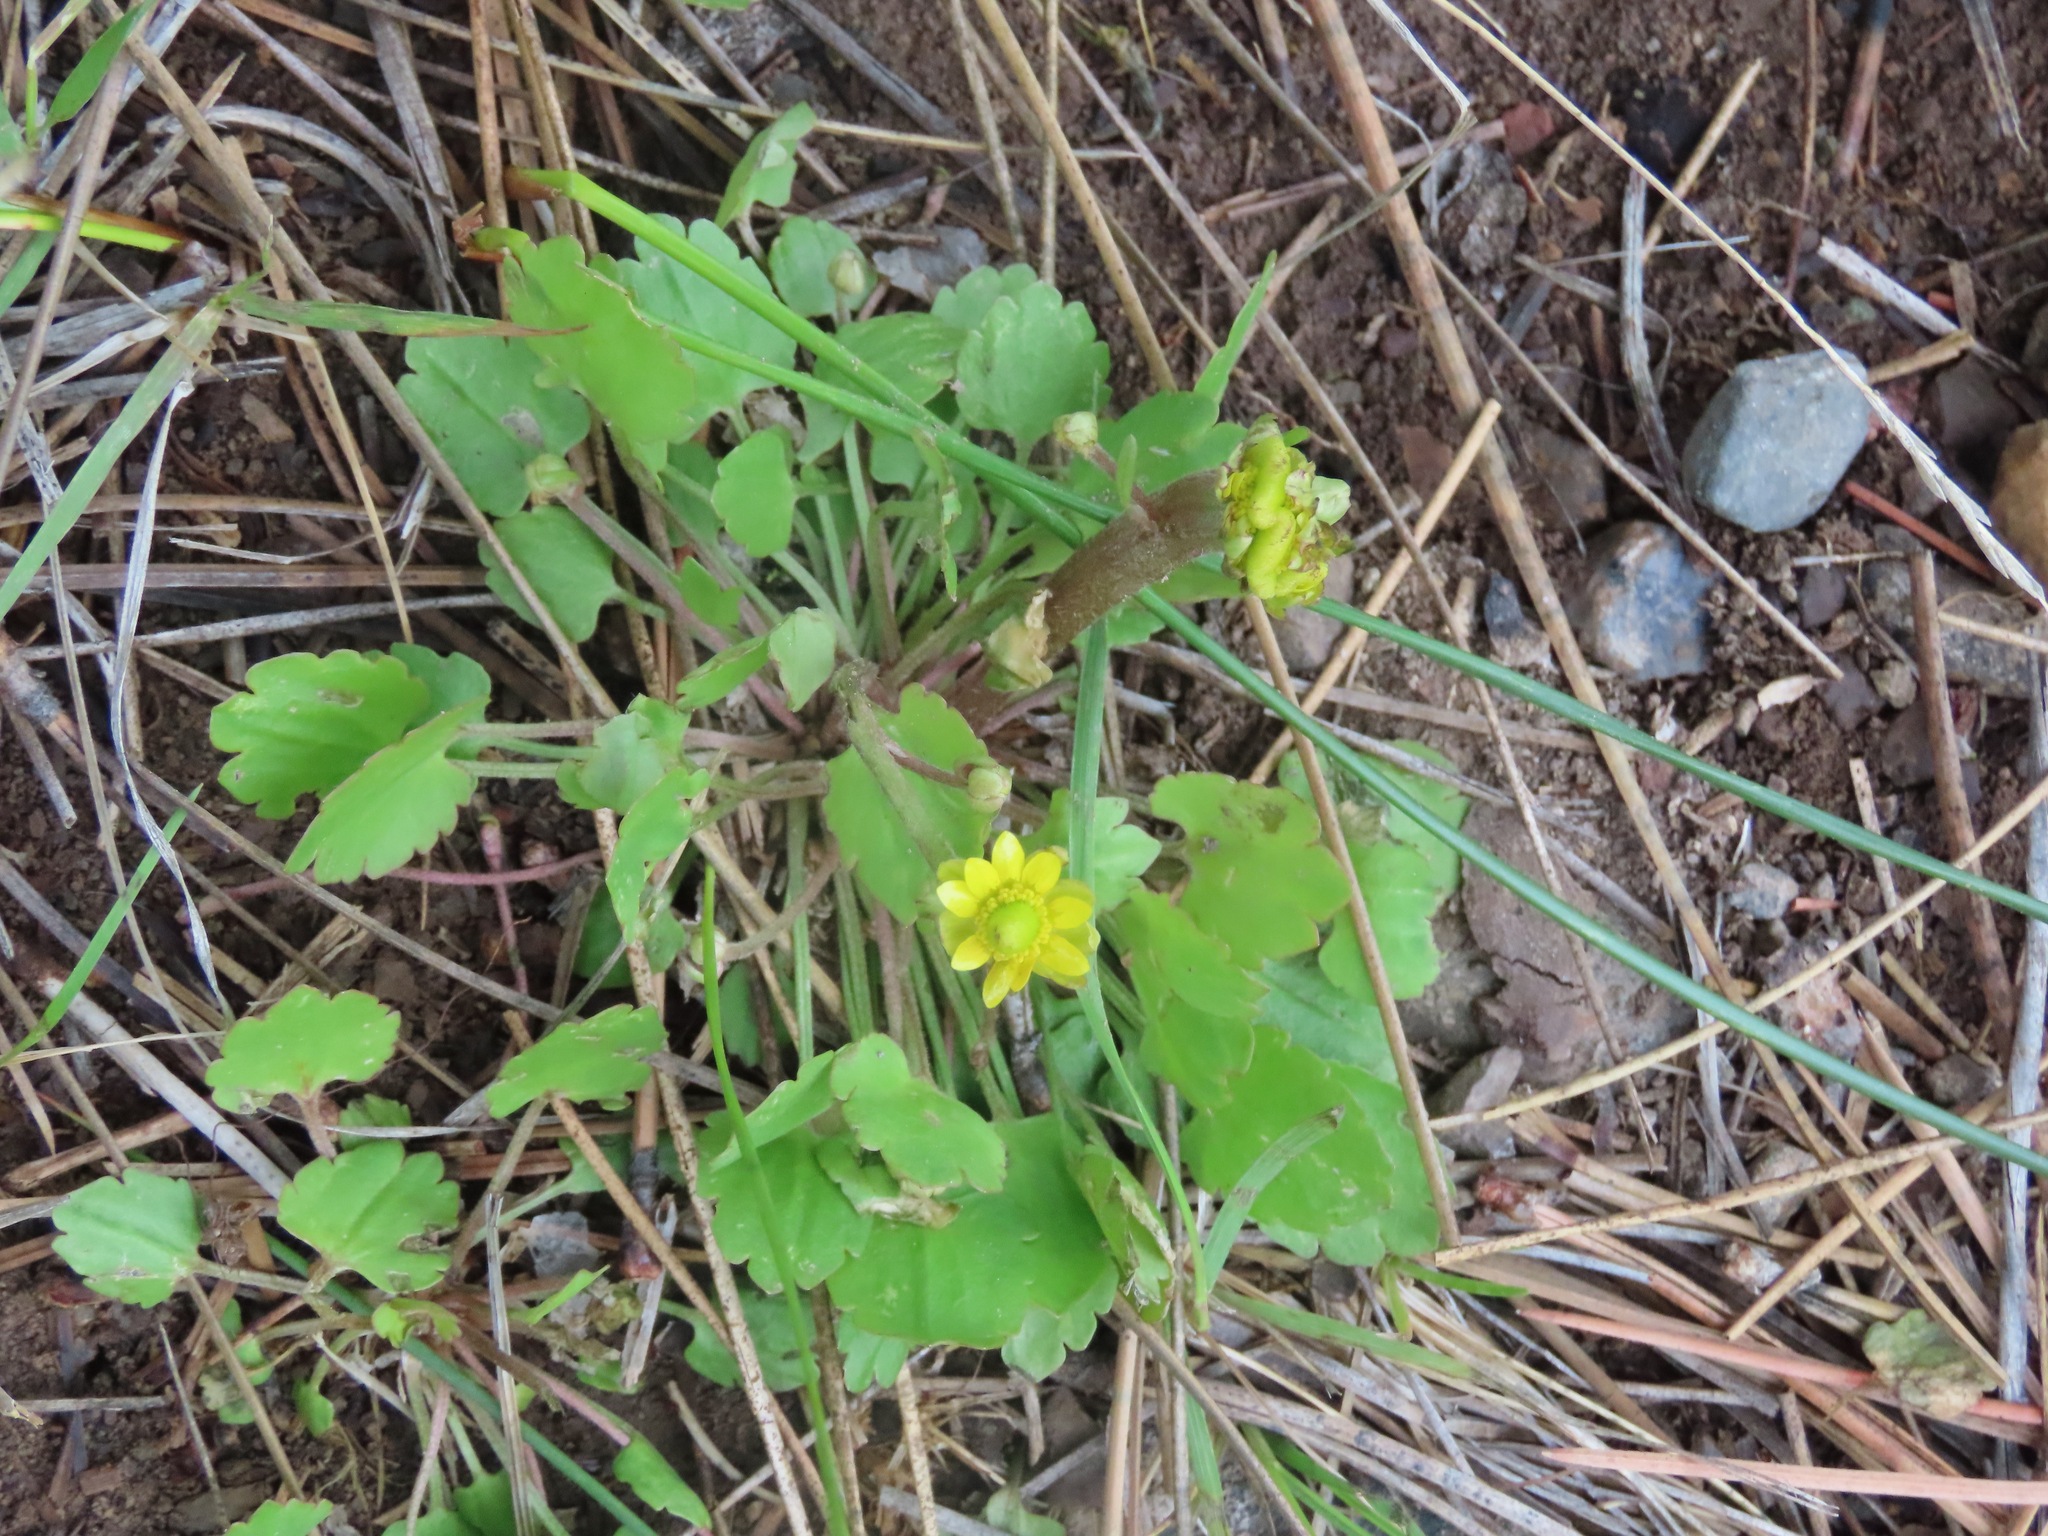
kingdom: Plantae
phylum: Tracheophyta
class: Magnoliopsida
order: Ranunculales
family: Ranunculaceae
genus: Halerpestes
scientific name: Halerpestes cymbalaria
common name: Seaside crowfoot
